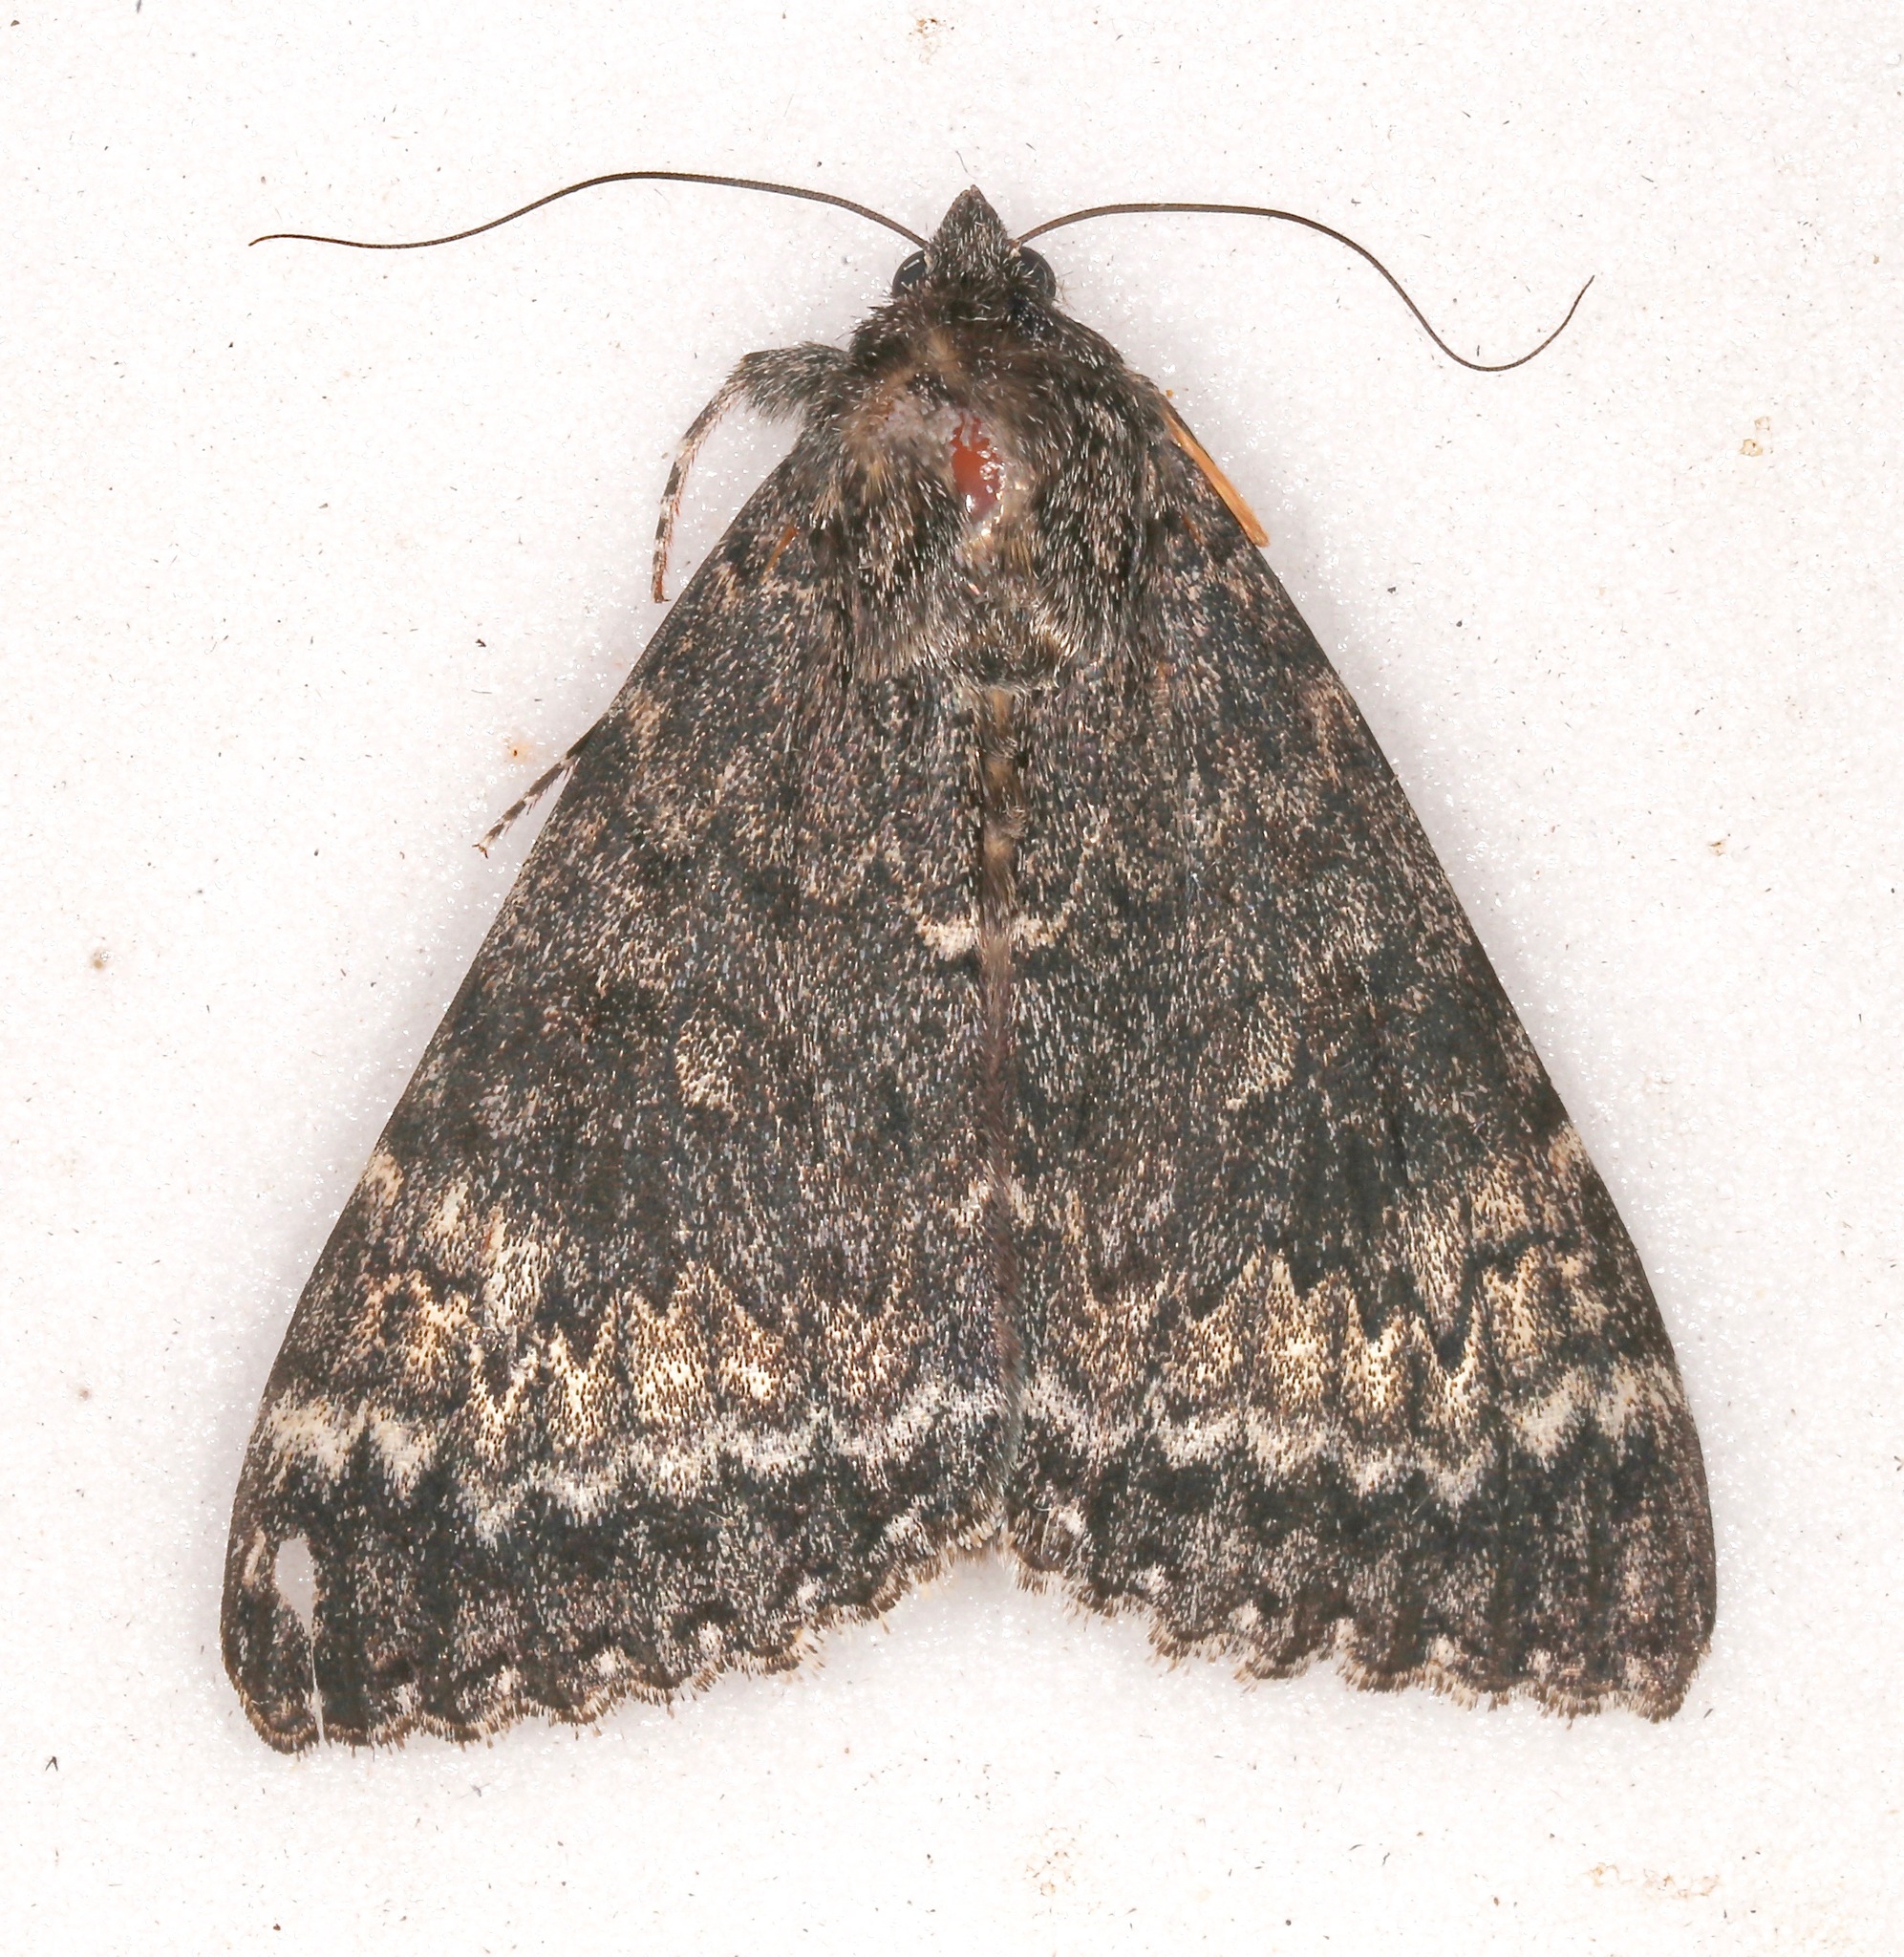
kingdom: Animalia
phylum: Arthropoda
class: Insecta
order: Lepidoptera
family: Erebidae
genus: Catocala
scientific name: Catocala grotiana
